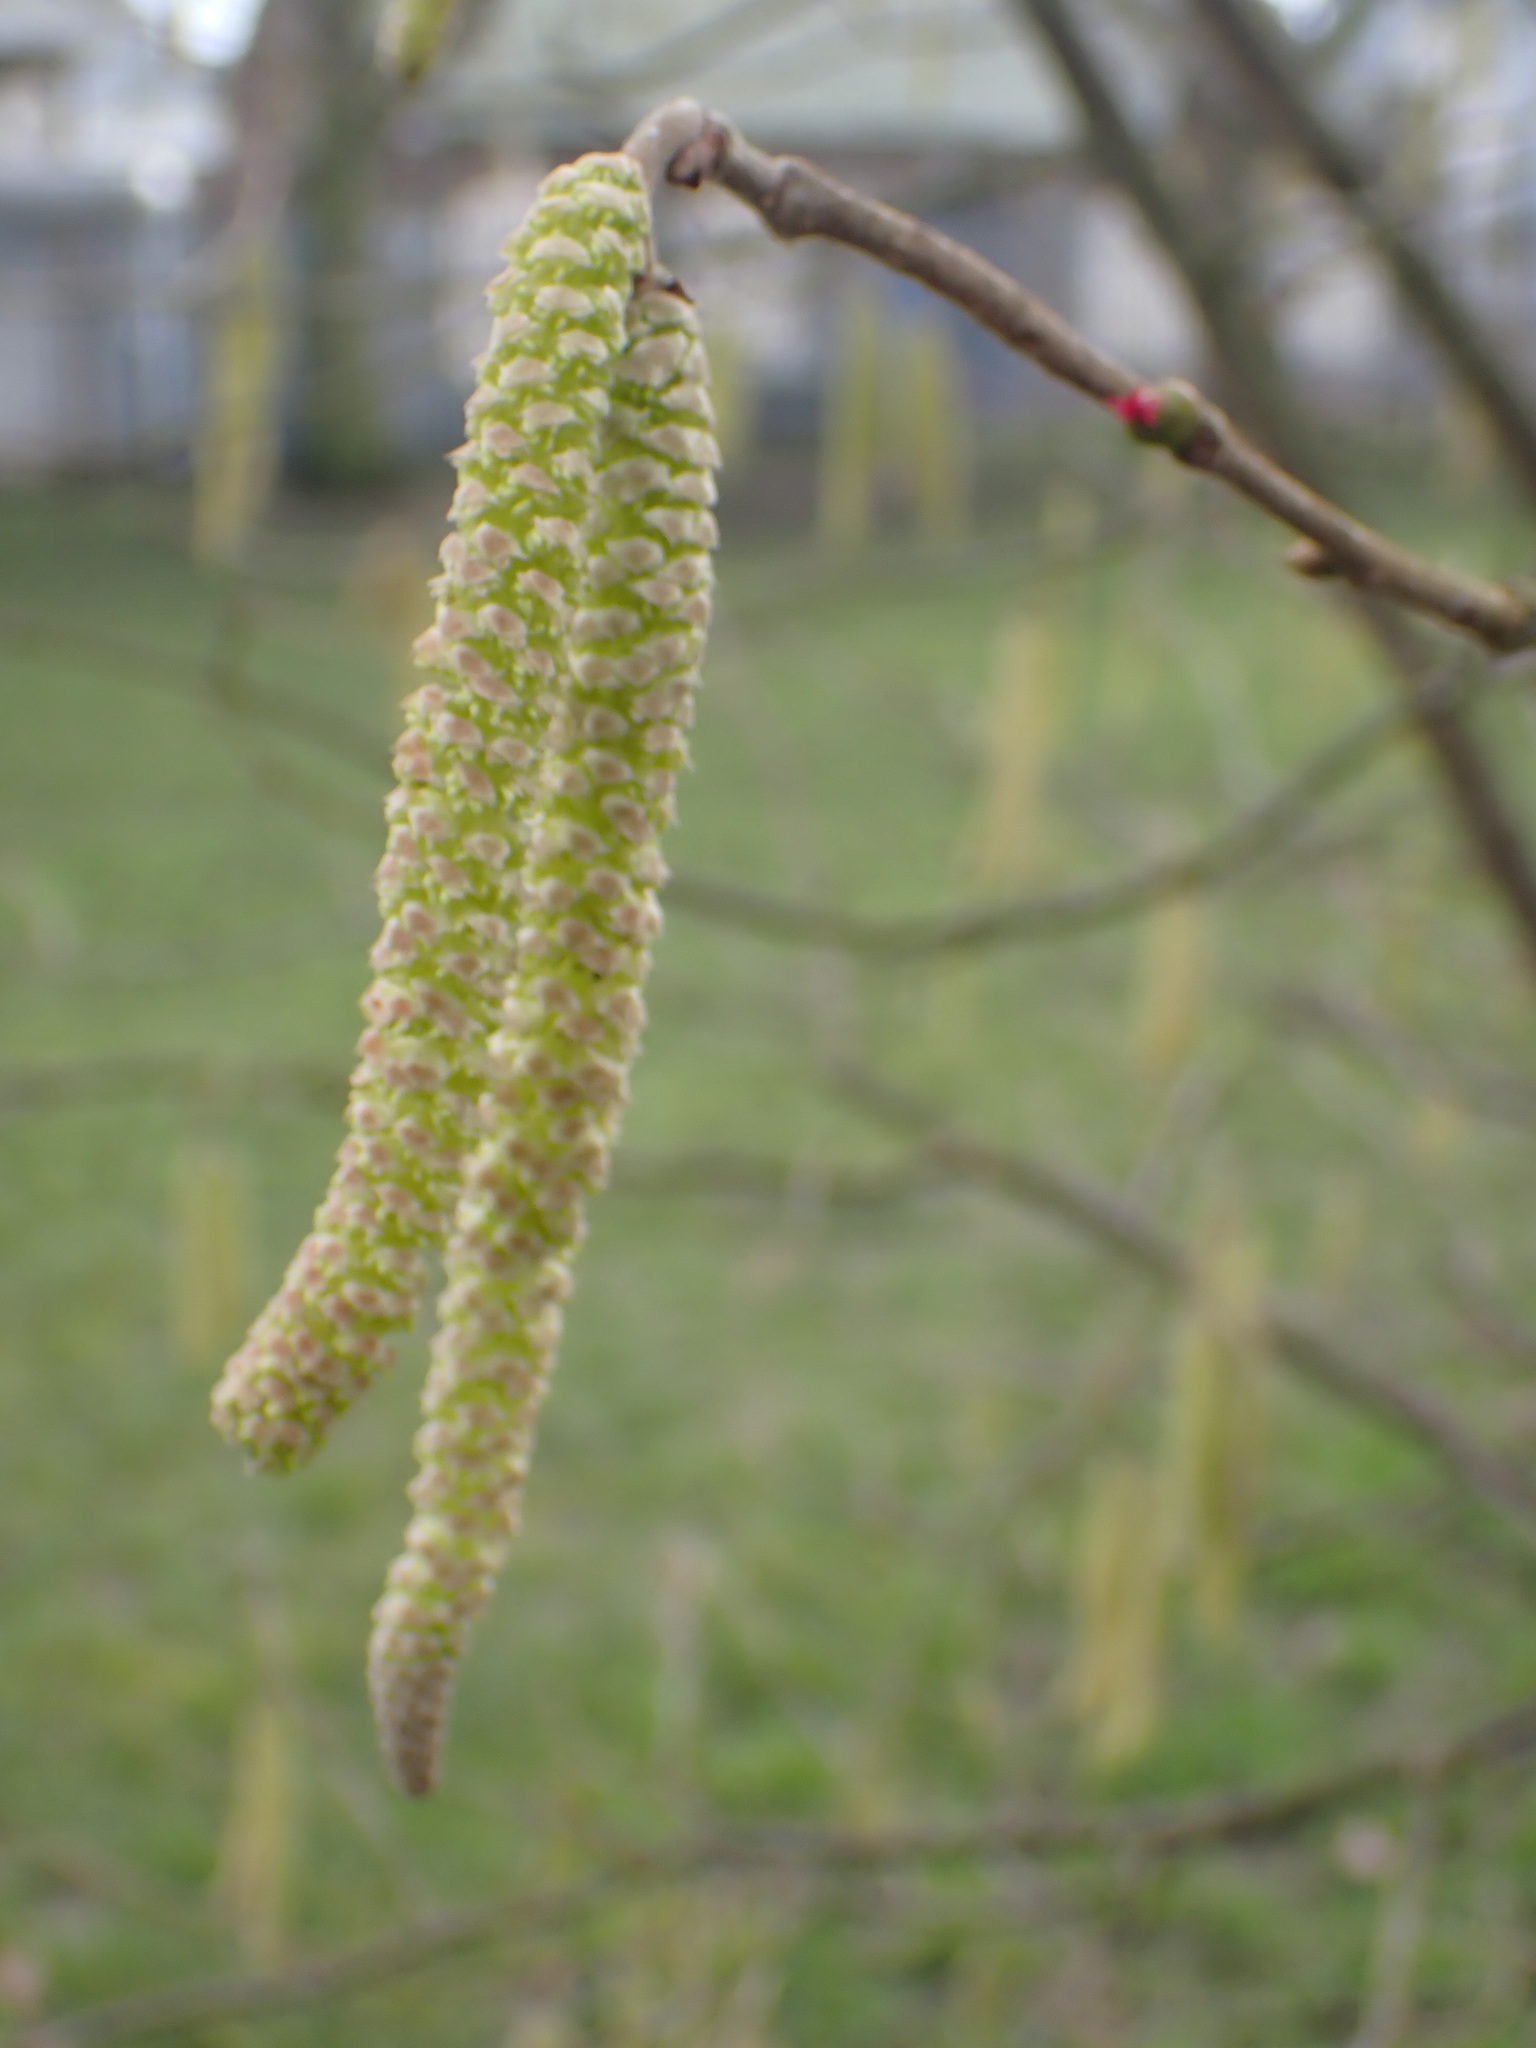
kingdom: Plantae
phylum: Tracheophyta
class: Magnoliopsida
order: Fagales
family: Betulaceae
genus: Corylus
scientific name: Corylus avellana
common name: European hazel
